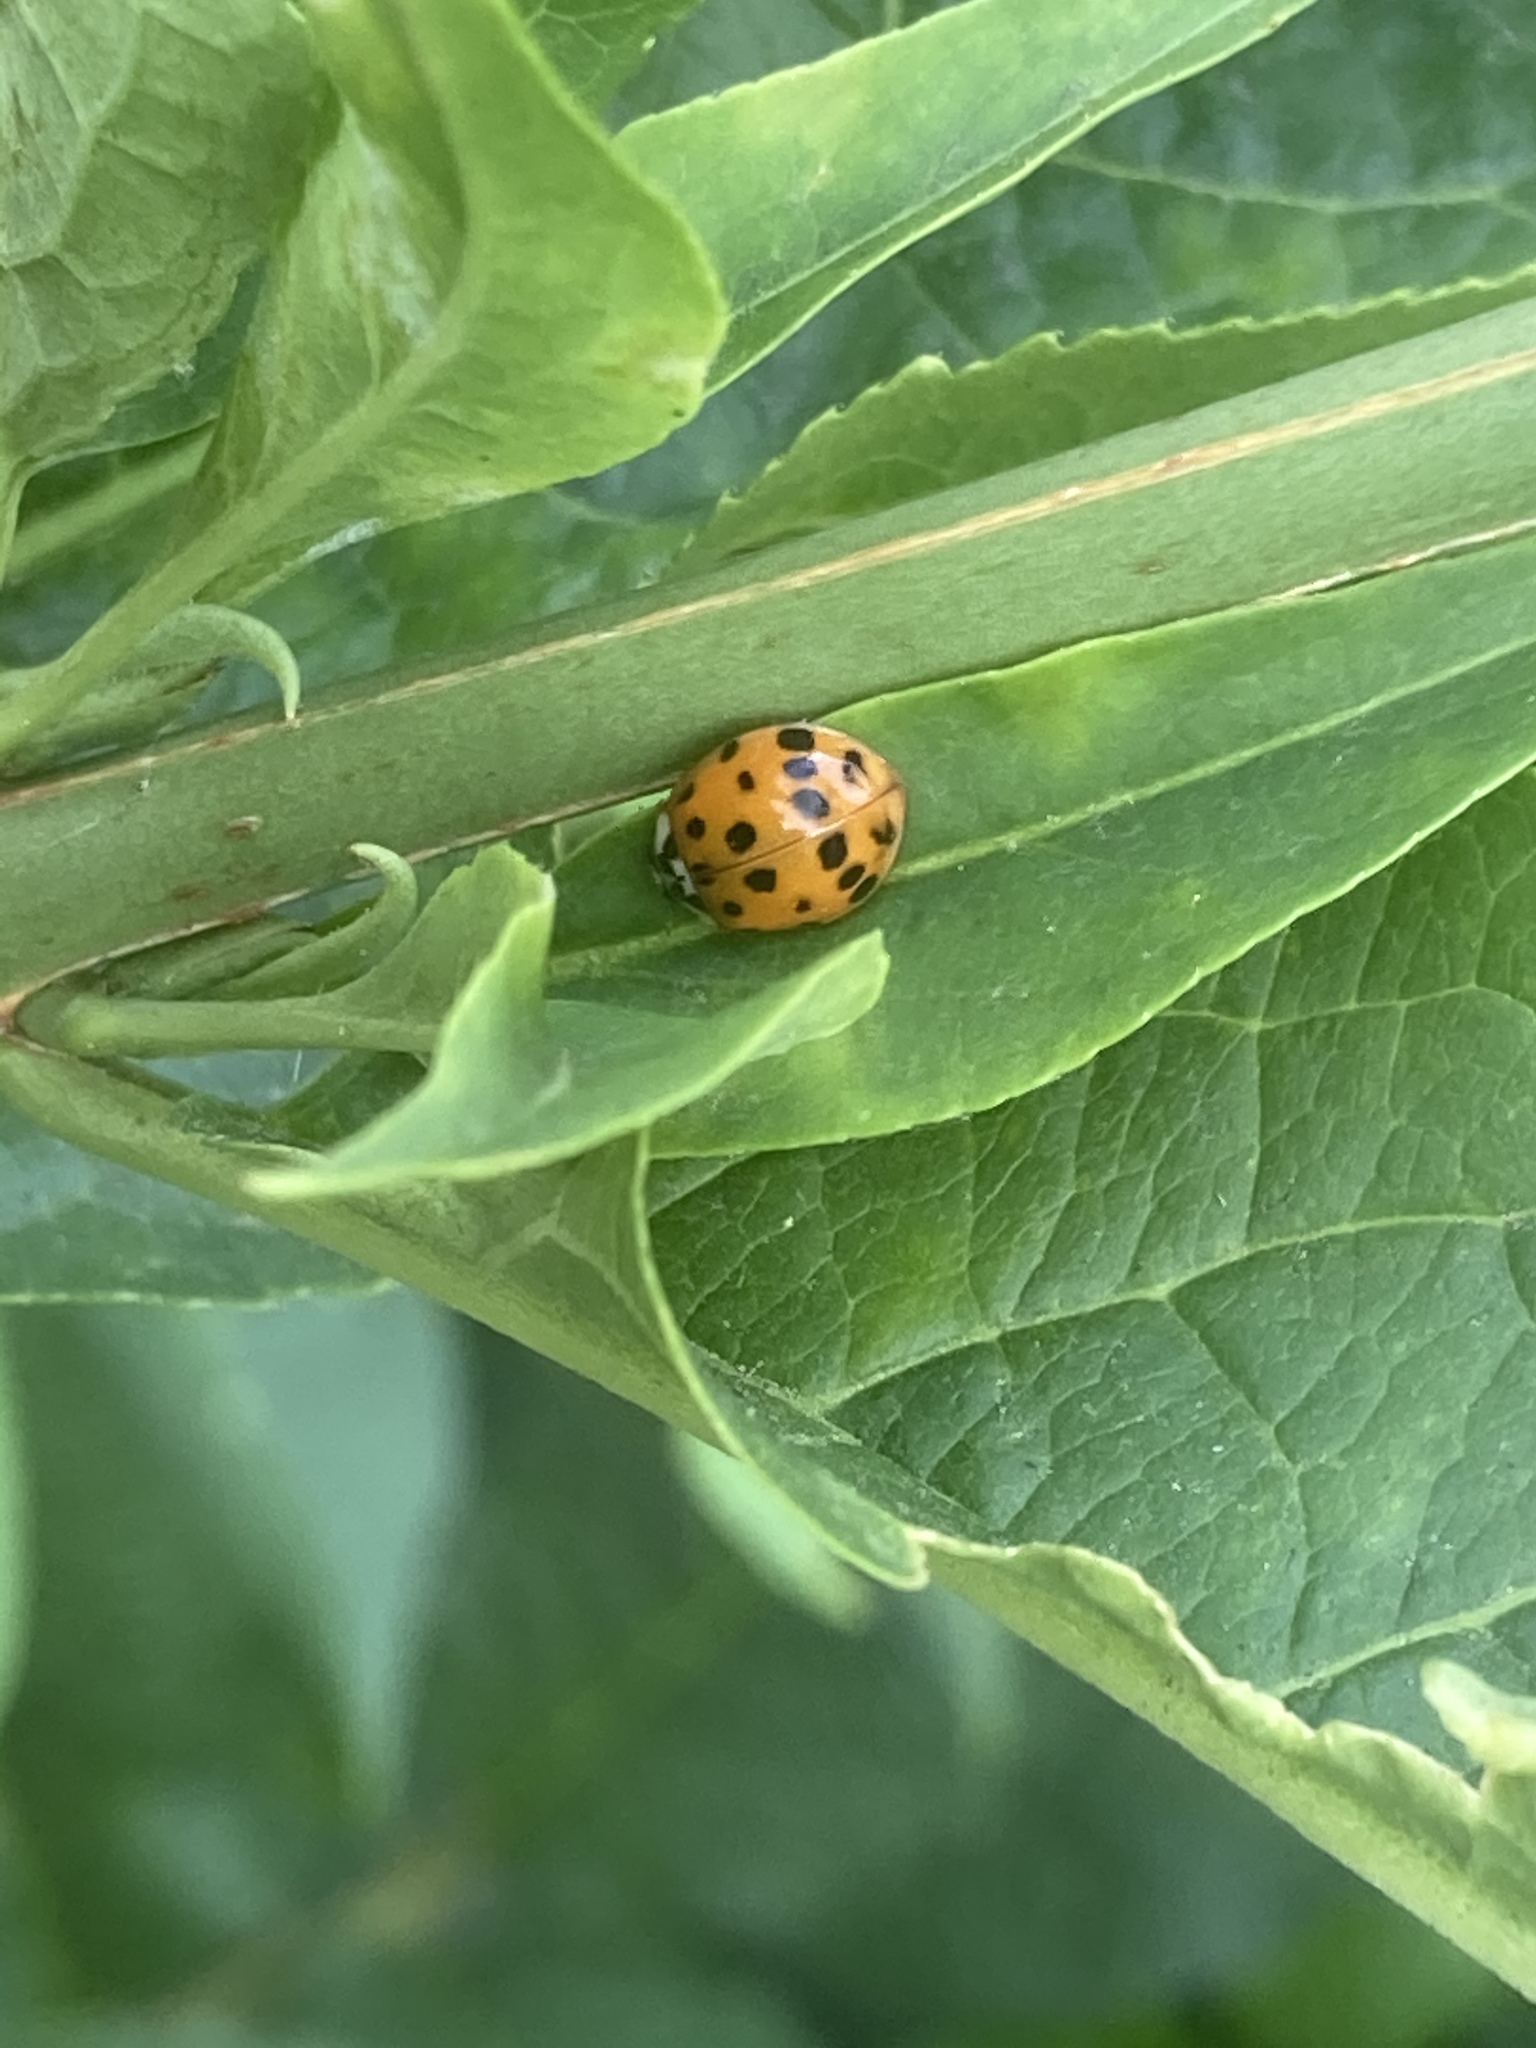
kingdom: Animalia
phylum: Arthropoda
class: Insecta
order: Coleoptera
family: Coccinellidae
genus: Harmonia
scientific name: Harmonia axyridis
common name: Harlequin ladybird
